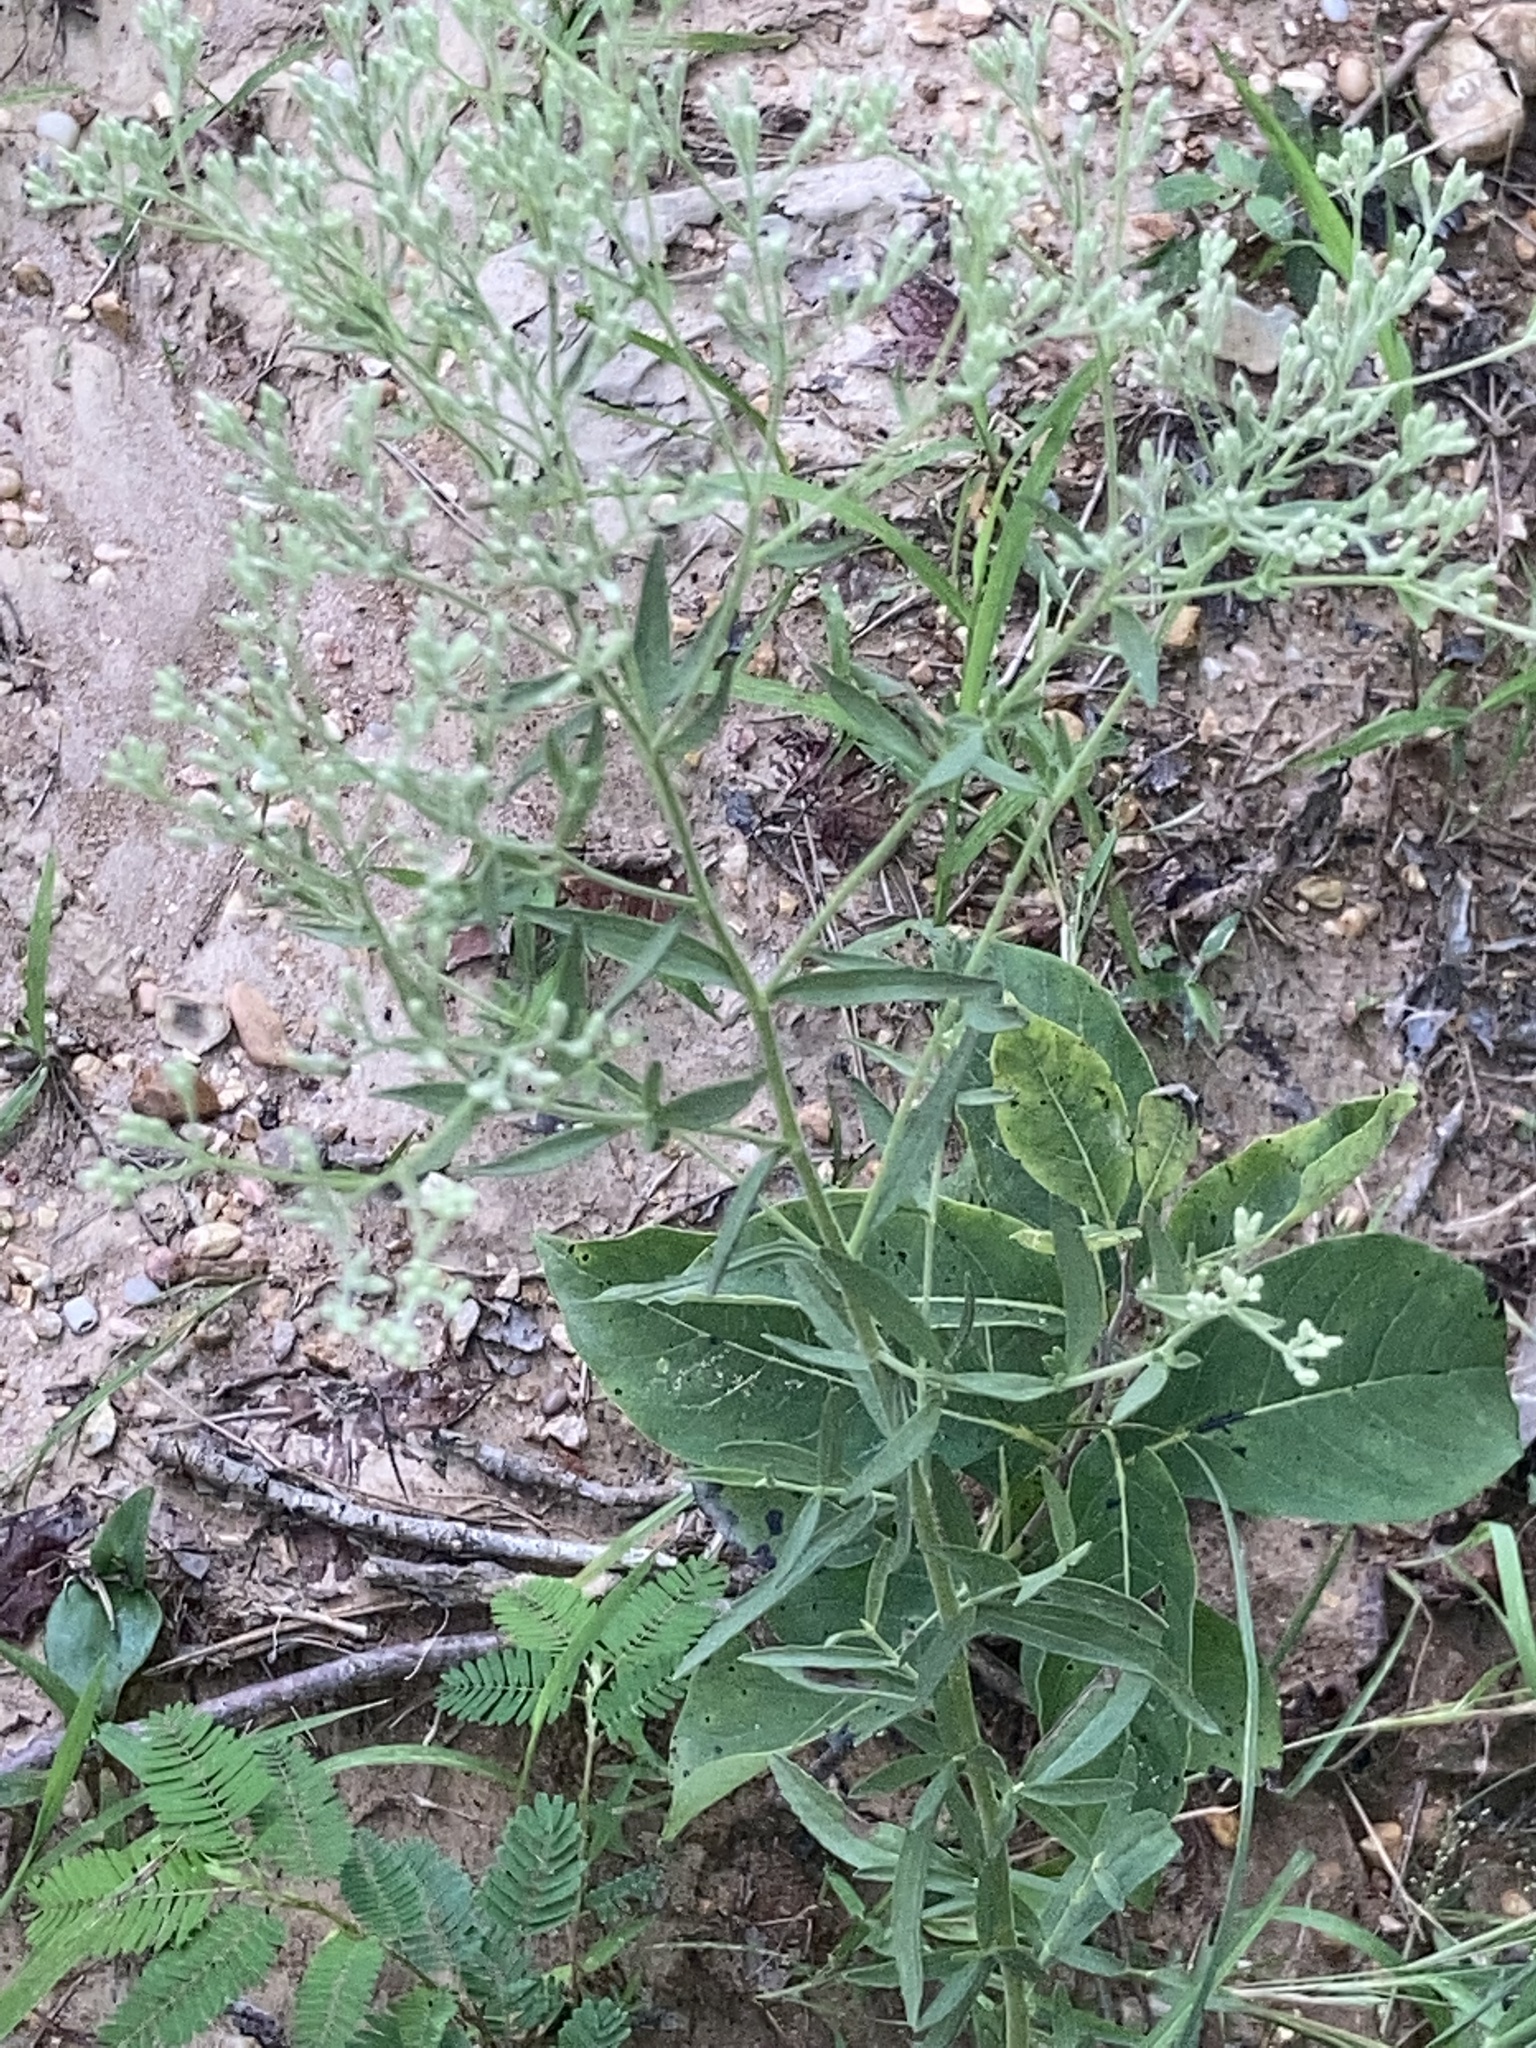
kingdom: Plantae
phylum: Tracheophyta
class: Magnoliopsida
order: Asterales
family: Asteraceae
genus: Eupatorium
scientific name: Eupatorium torreyanum
